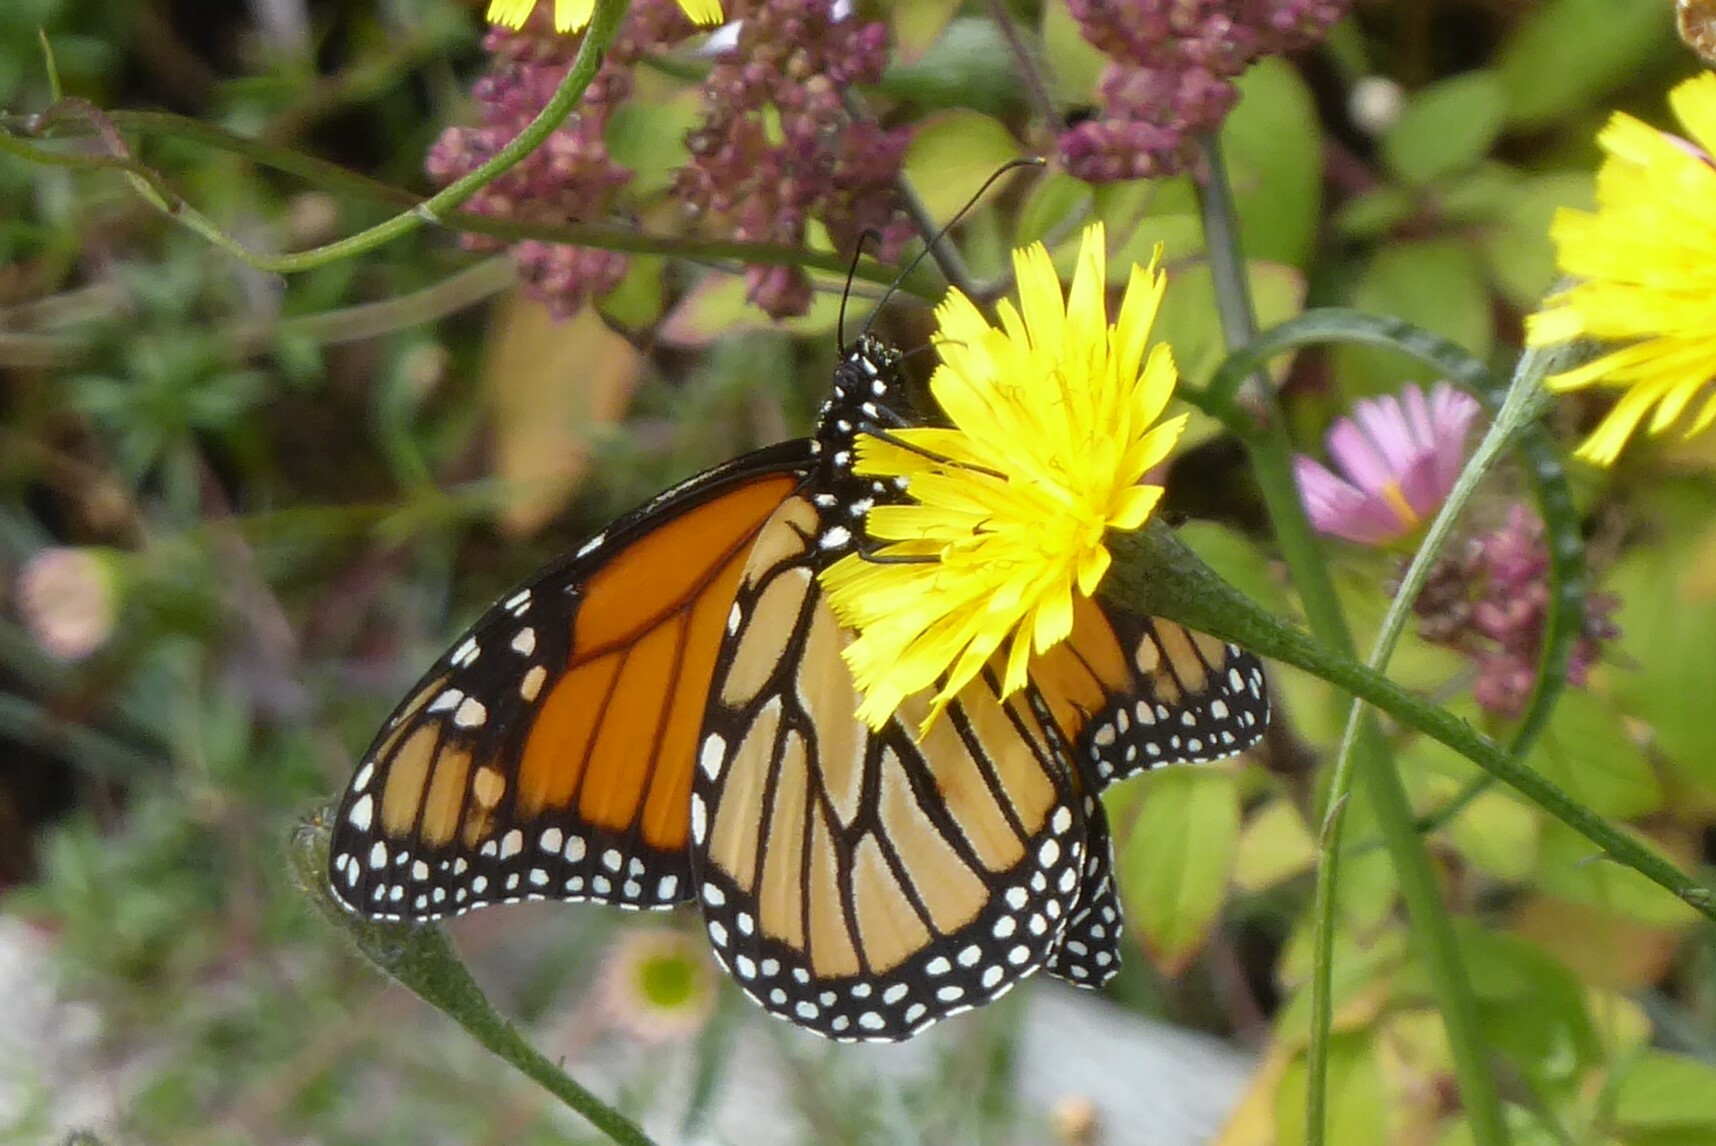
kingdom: Animalia
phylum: Arthropoda
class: Insecta
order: Lepidoptera
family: Nymphalidae
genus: Danaus
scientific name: Danaus plexippus
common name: Monarch
